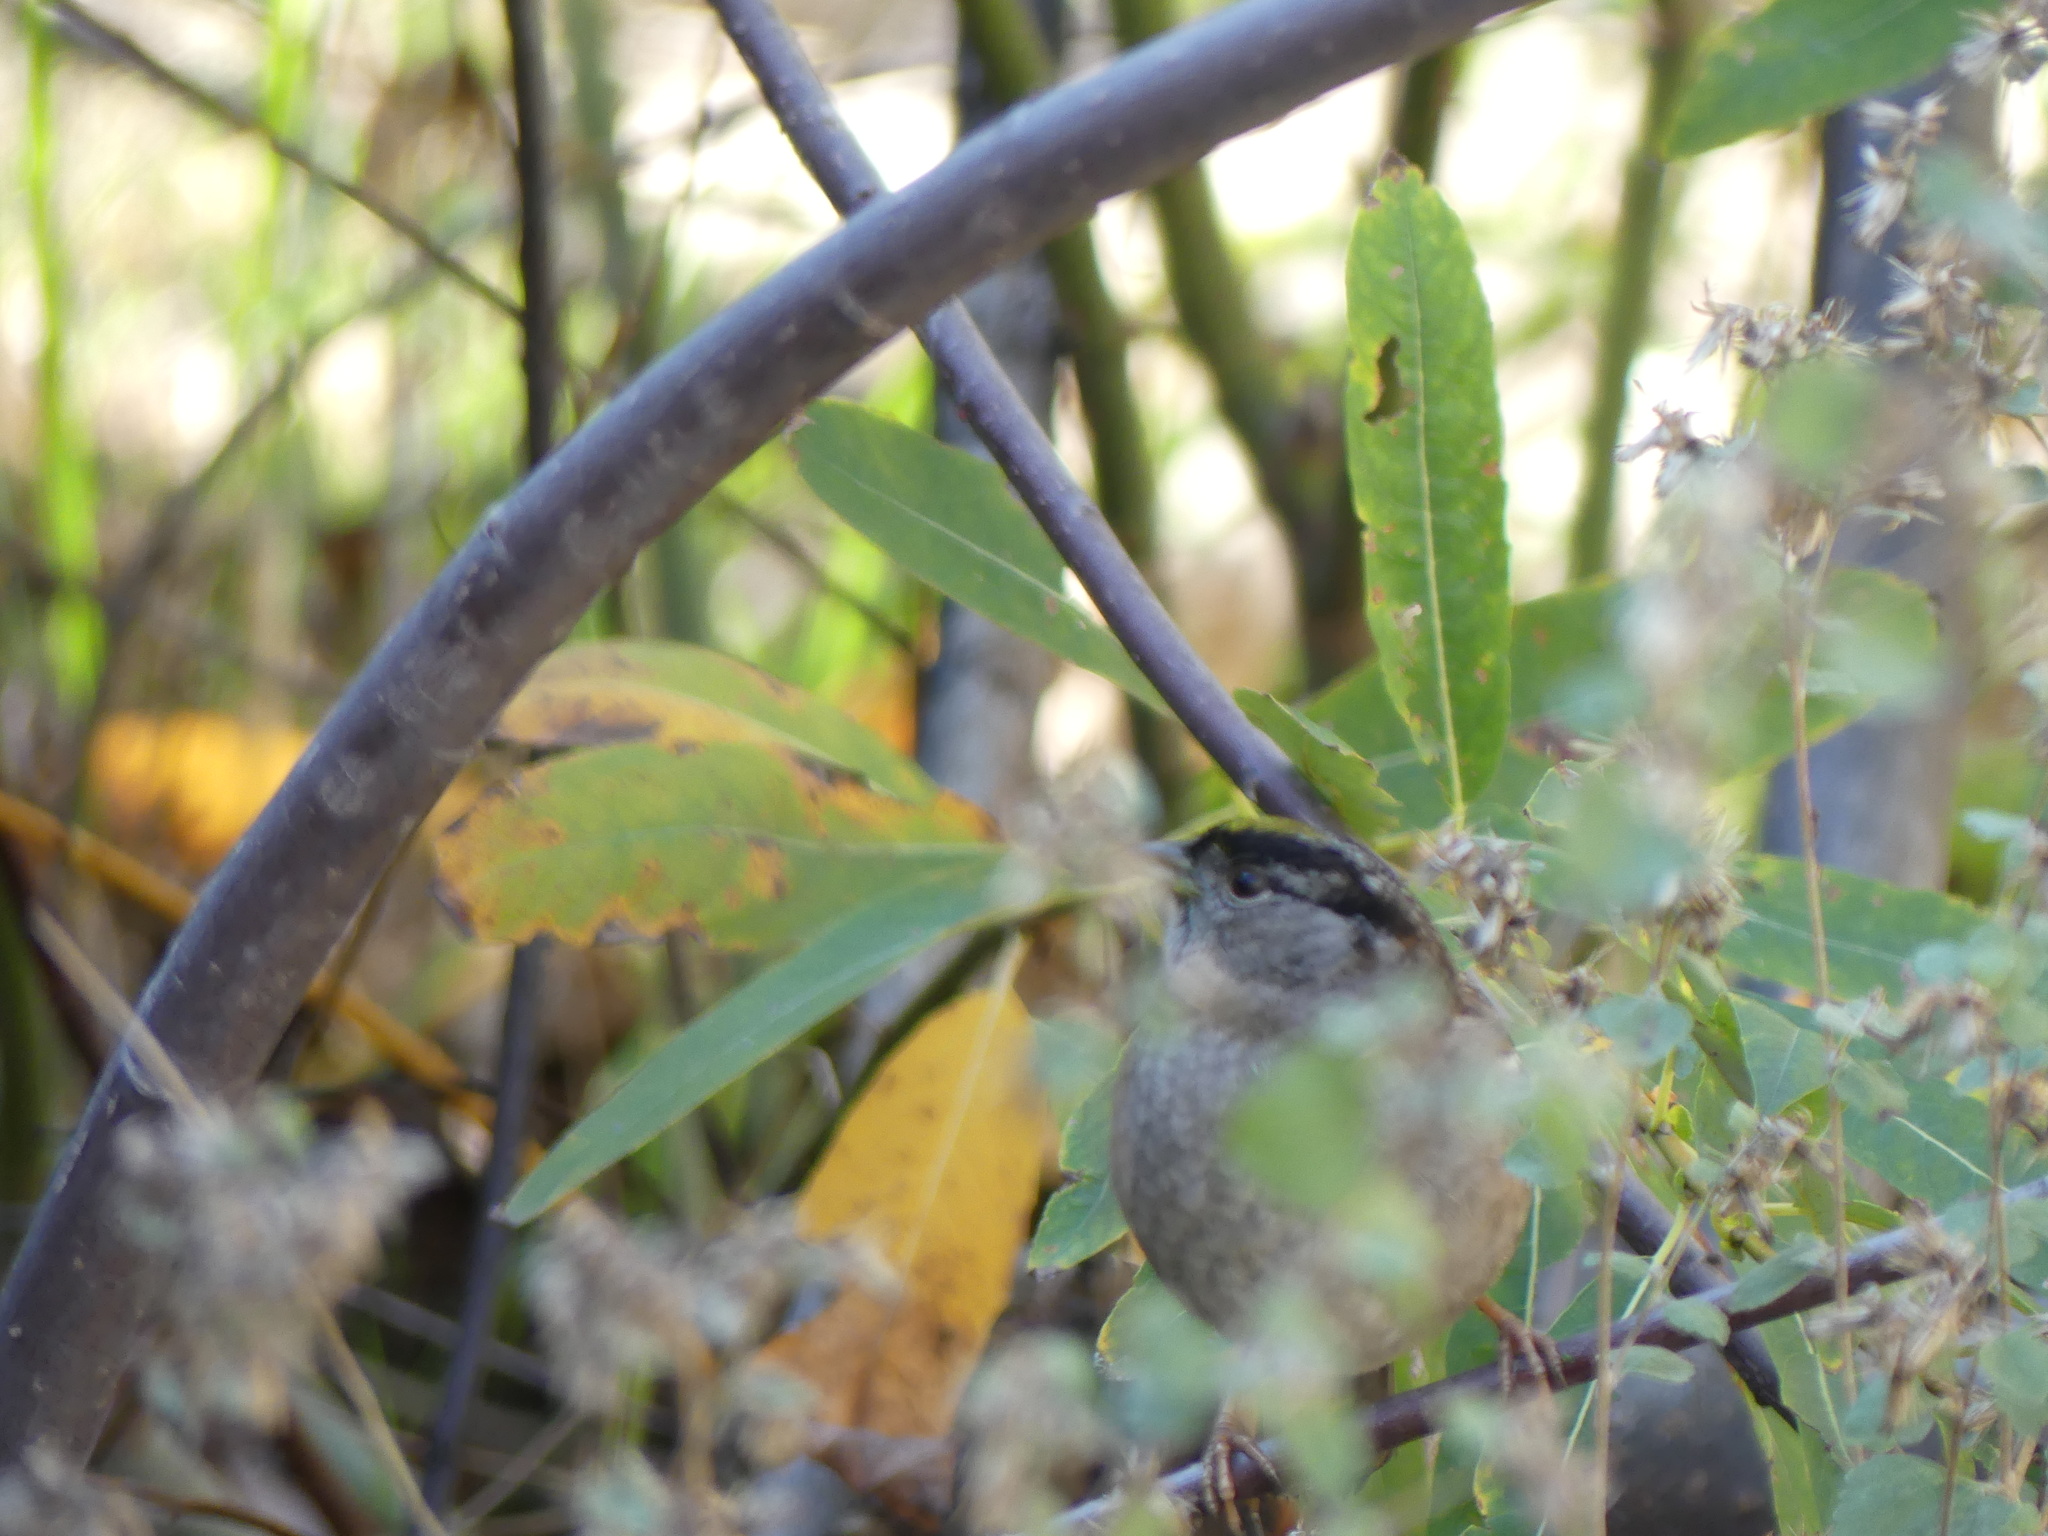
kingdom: Animalia
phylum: Chordata
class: Aves
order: Passeriformes
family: Passerellidae
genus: Zonotrichia
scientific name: Zonotrichia atricapilla
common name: Golden-crowned sparrow
